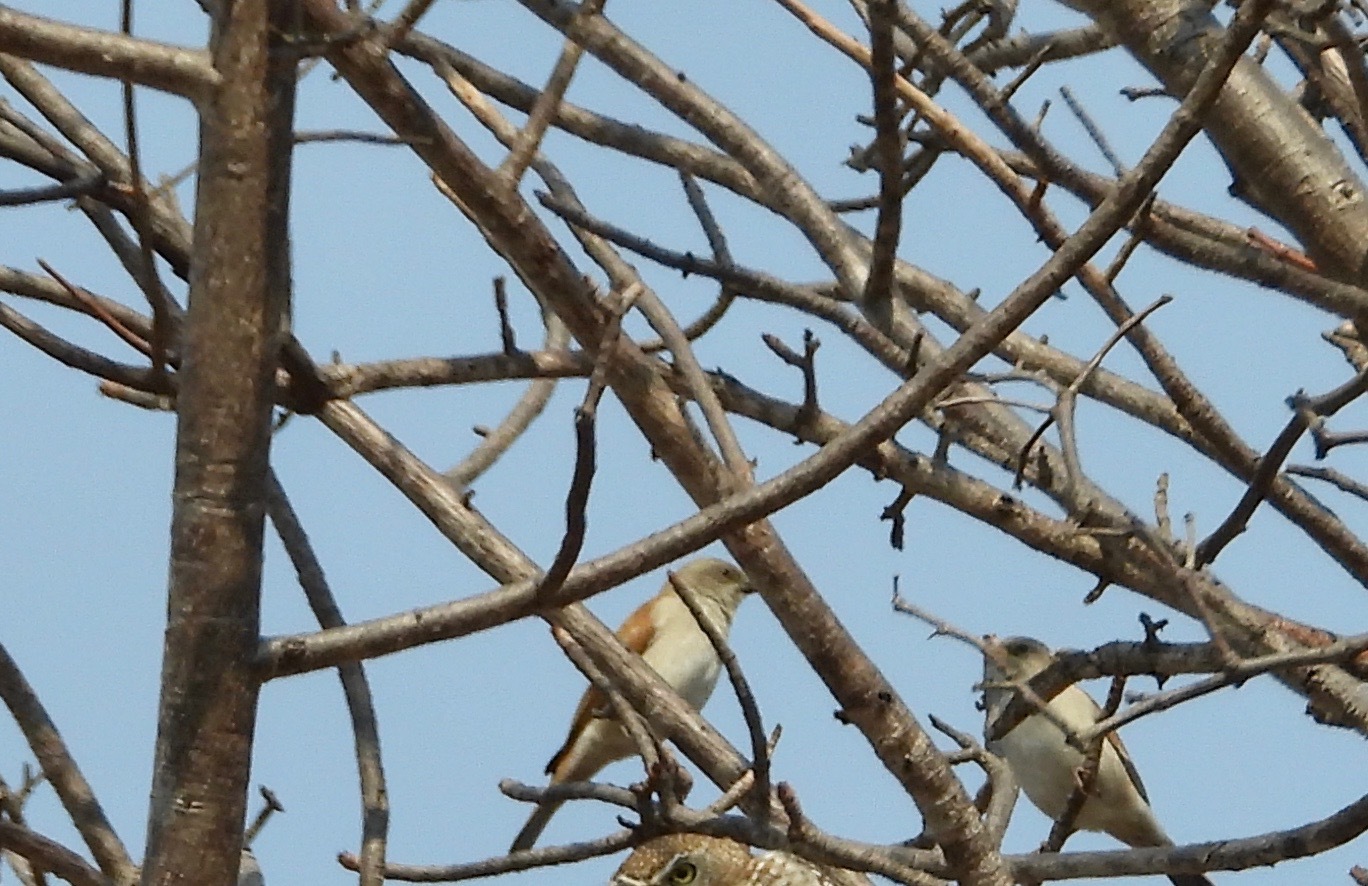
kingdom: Animalia
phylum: Chordata
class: Aves
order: Passeriformes
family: Passeridae
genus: Passer
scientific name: Passer diffusus
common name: Southern grey-headed sparrow
